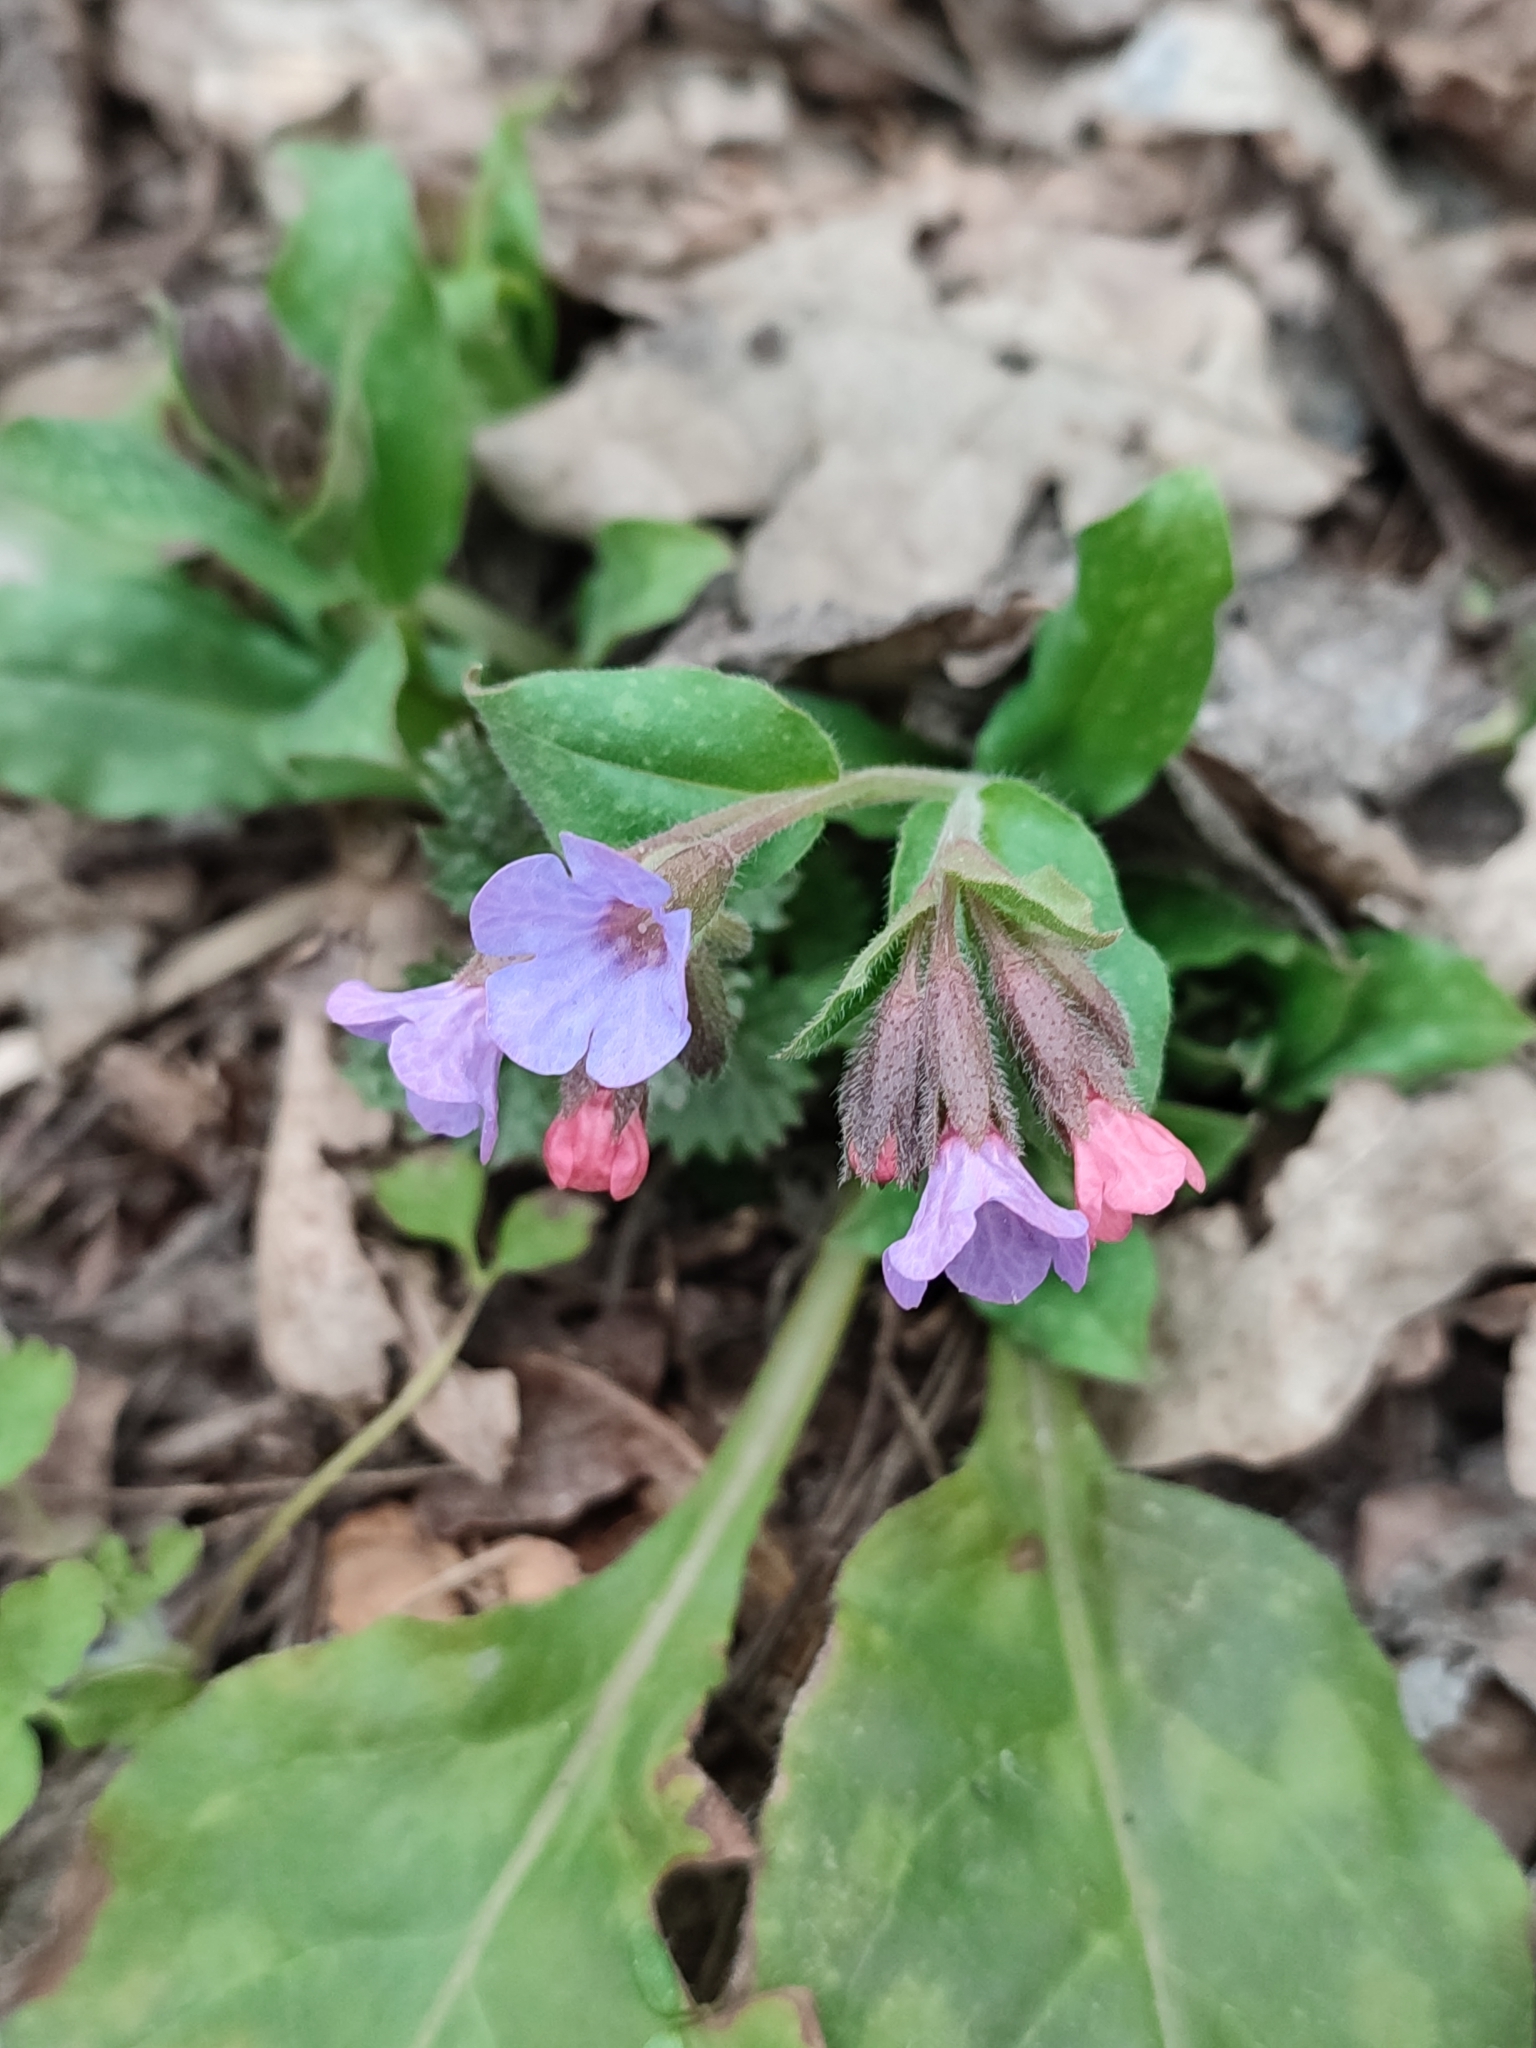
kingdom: Plantae
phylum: Tracheophyta
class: Magnoliopsida
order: Boraginales
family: Boraginaceae
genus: Pulmonaria
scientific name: Pulmonaria obscura
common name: Suffolk lungwort
